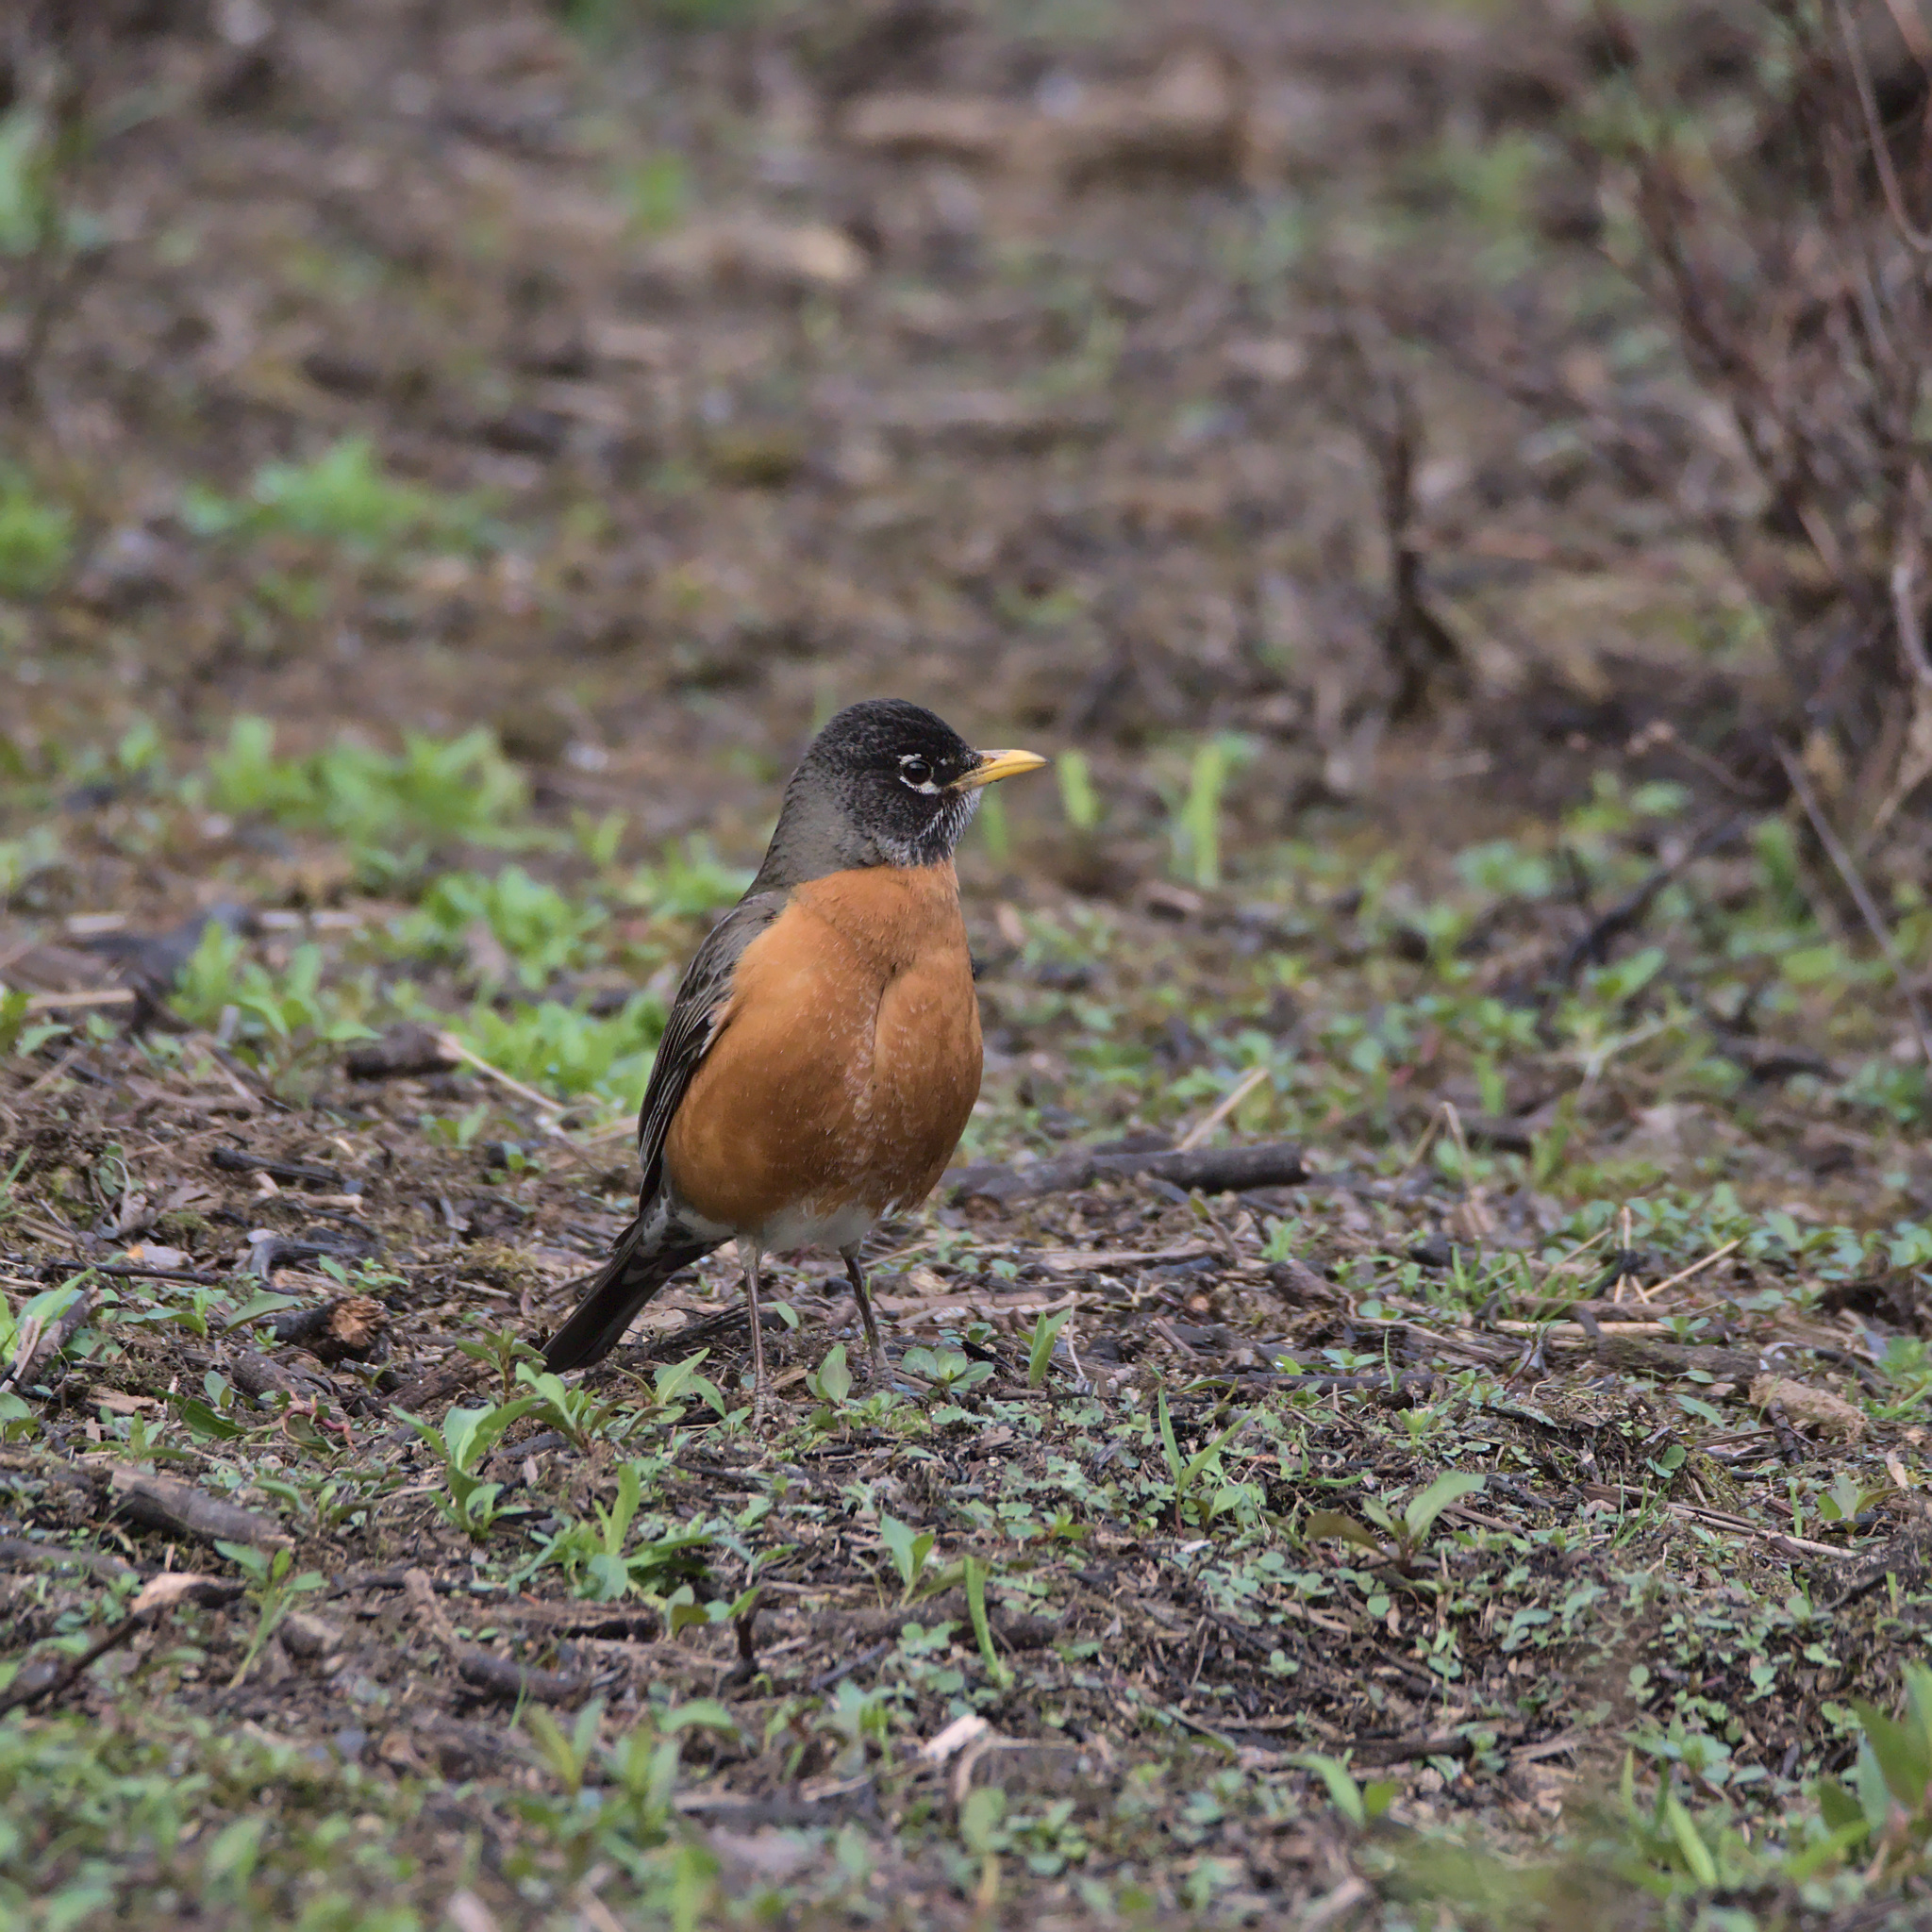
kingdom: Animalia
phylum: Chordata
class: Aves
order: Passeriformes
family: Turdidae
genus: Turdus
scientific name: Turdus migratorius
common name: American robin
